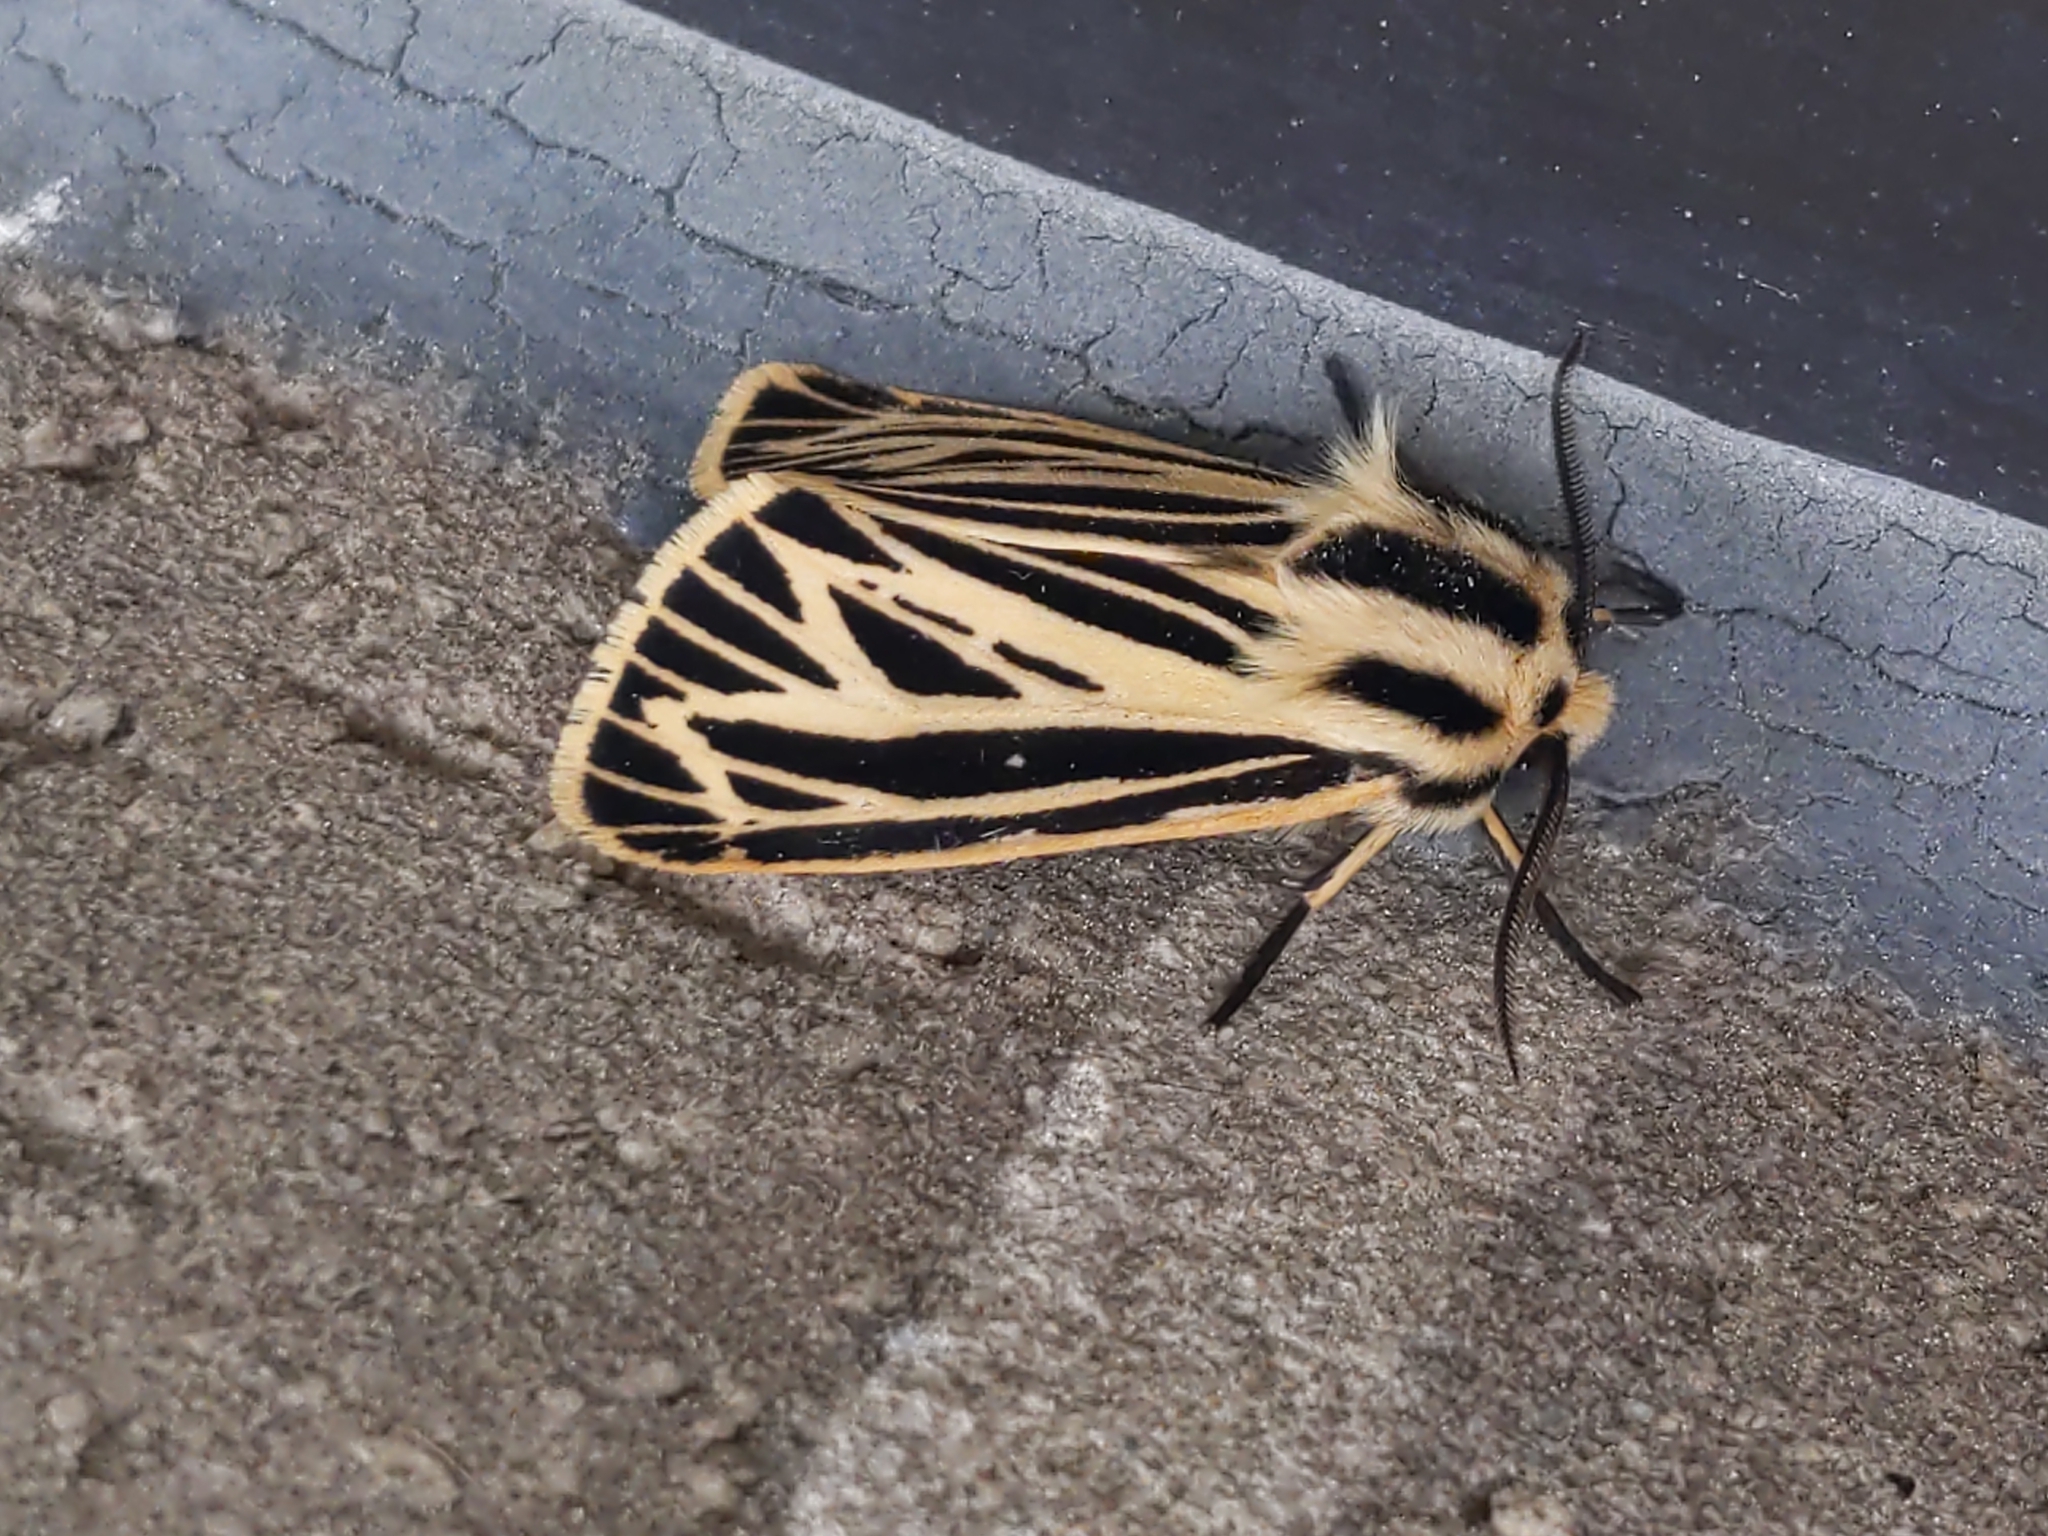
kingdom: Animalia
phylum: Arthropoda
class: Insecta
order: Lepidoptera
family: Erebidae
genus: Grammia
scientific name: Grammia virguncula
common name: Little tiger moth
